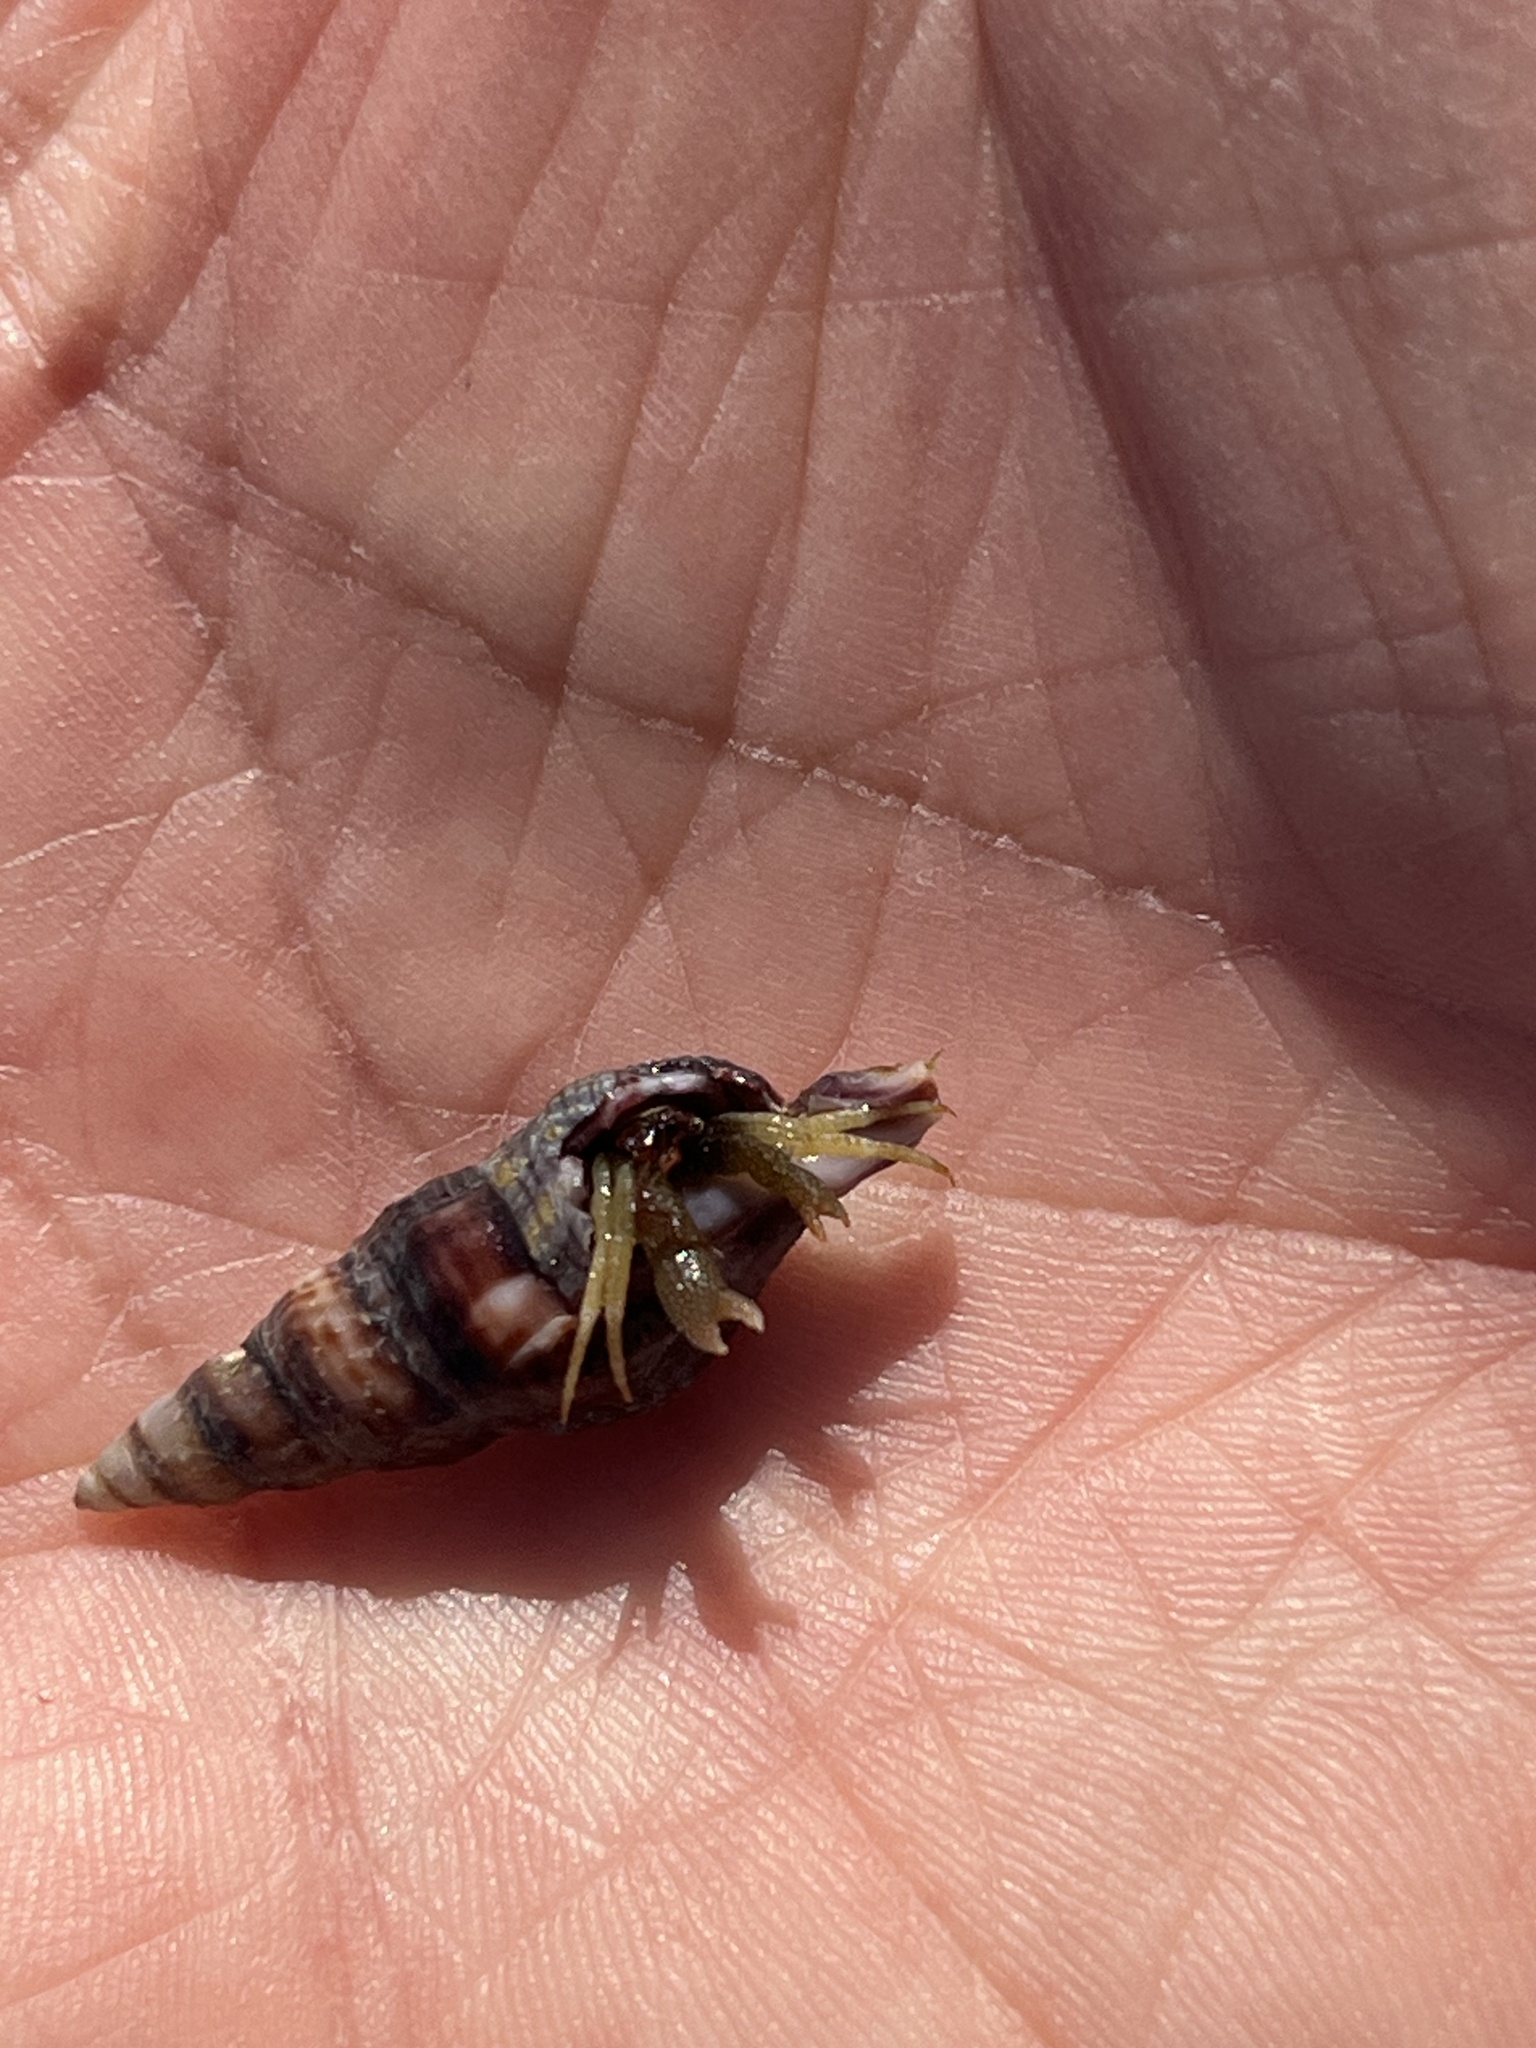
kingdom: Animalia
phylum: Arthropoda
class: Malacostraca
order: Decapoda
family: Paguridae
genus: Pagurus
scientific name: Pagurus granosimanus
